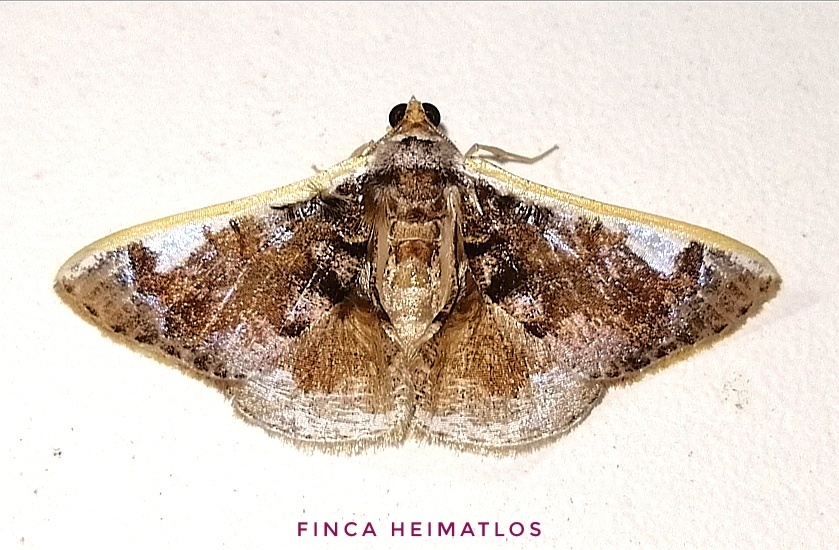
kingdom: Animalia
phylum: Arthropoda
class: Insecta
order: Lepidoptera
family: Geometridae
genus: Gyostega
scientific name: Gyostega floccosa
